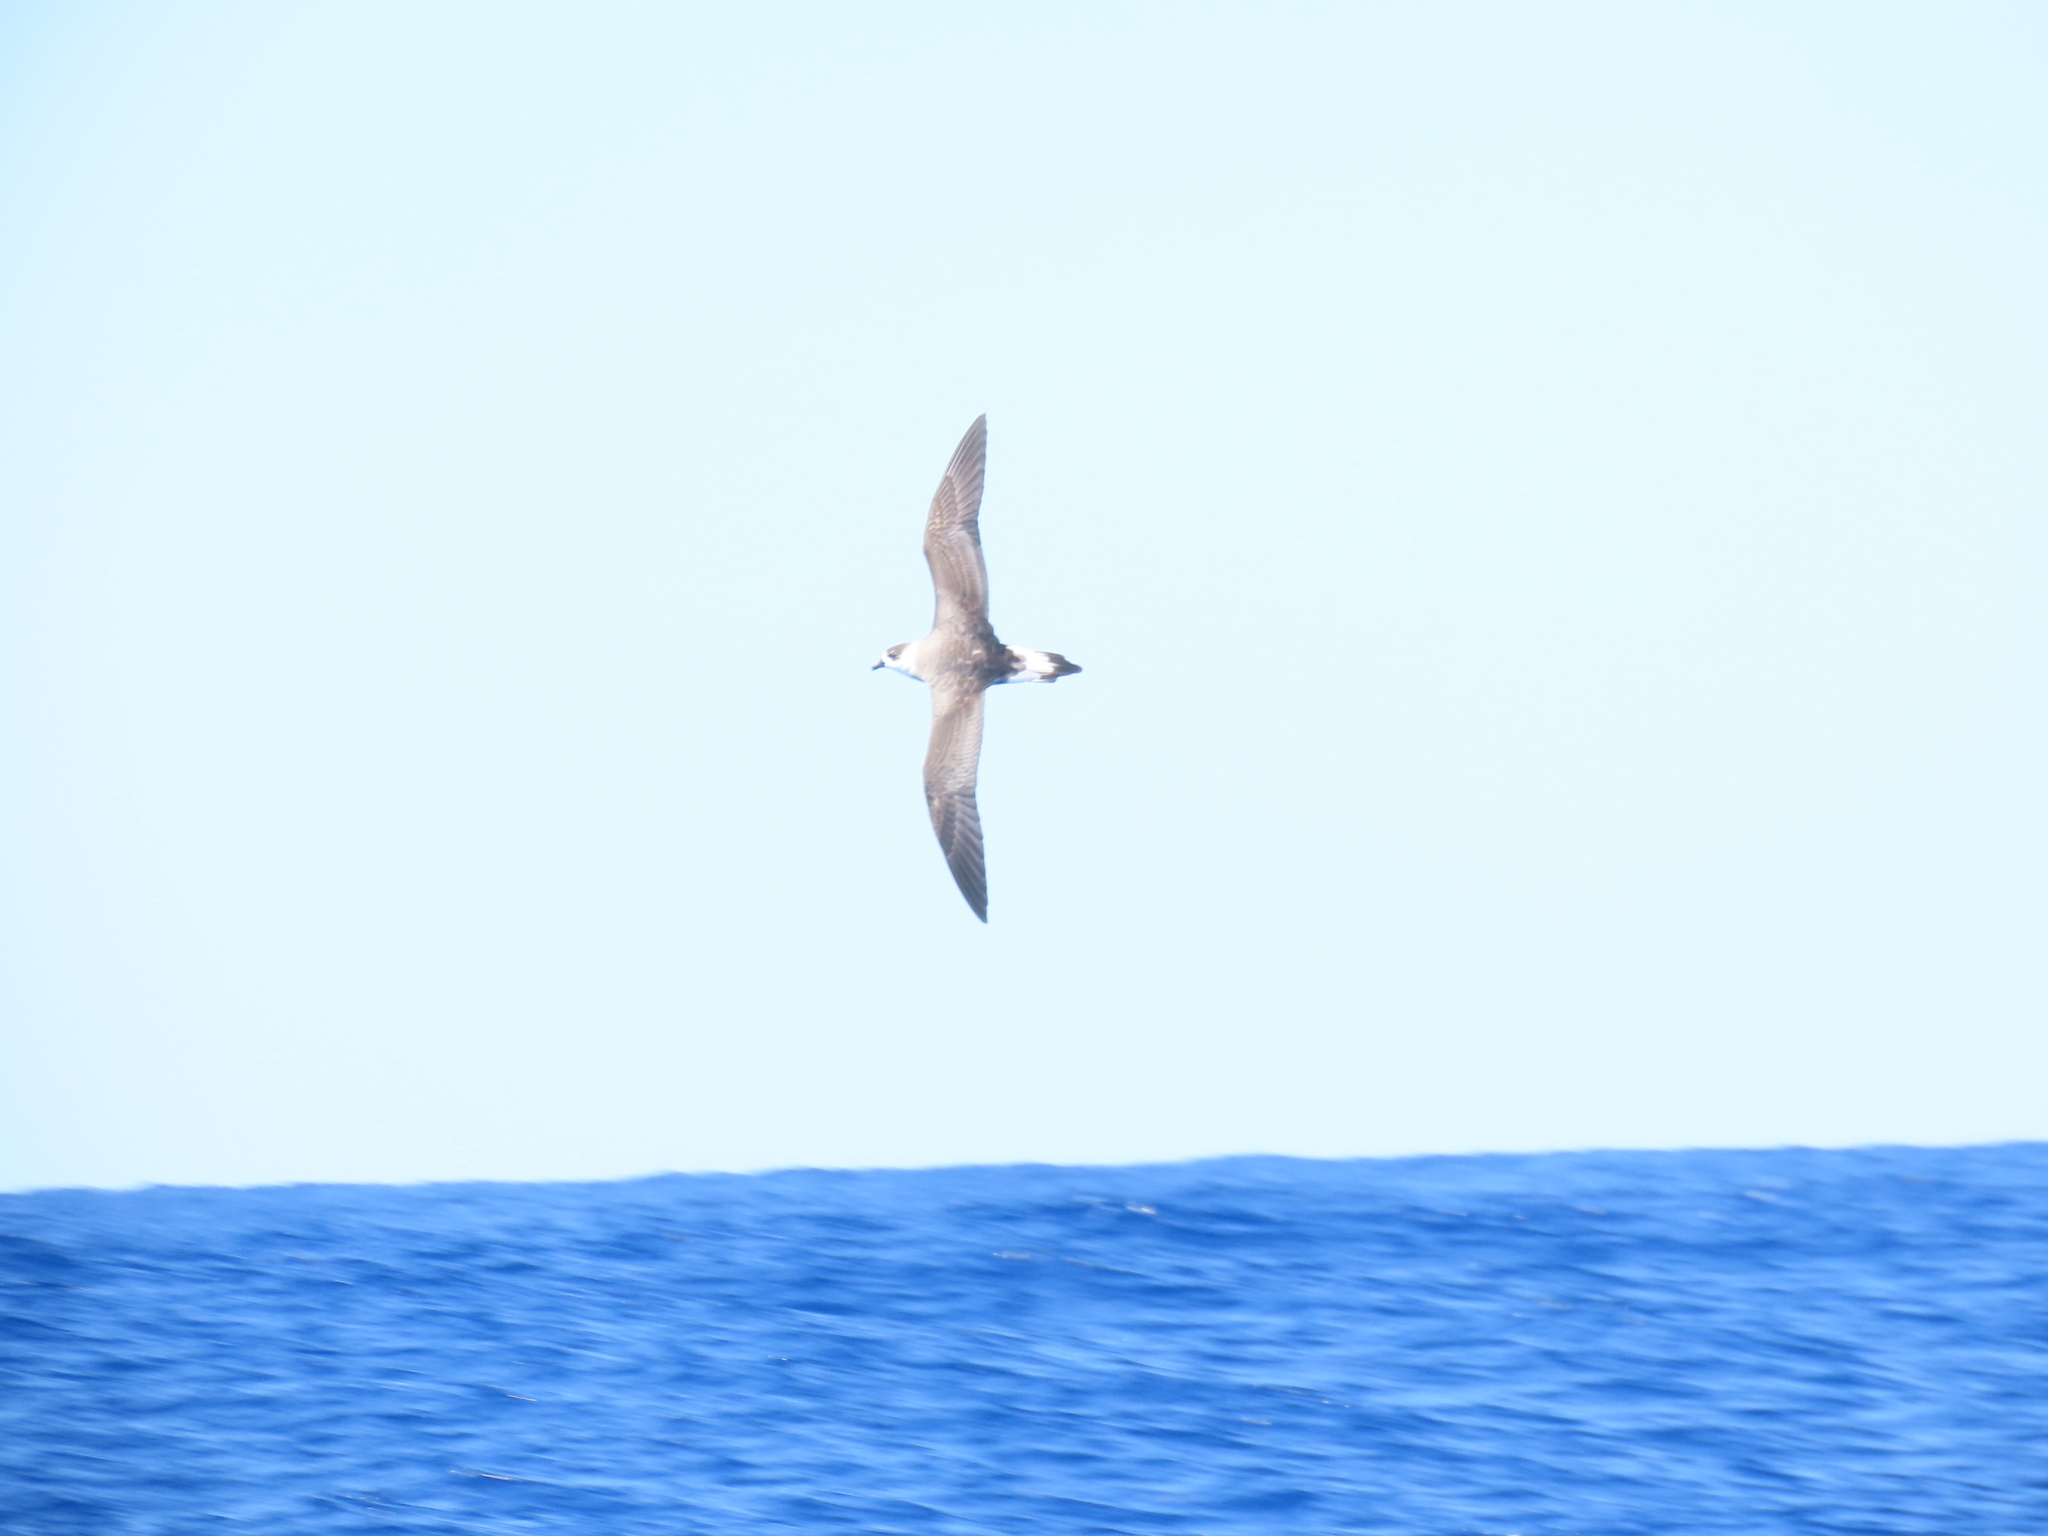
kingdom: Animalia
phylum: Chordata
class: Aves
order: Procellariiformes
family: Procellariidae
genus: Pterodroma
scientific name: Pterodroma hasitata
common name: Black-capped petrel
